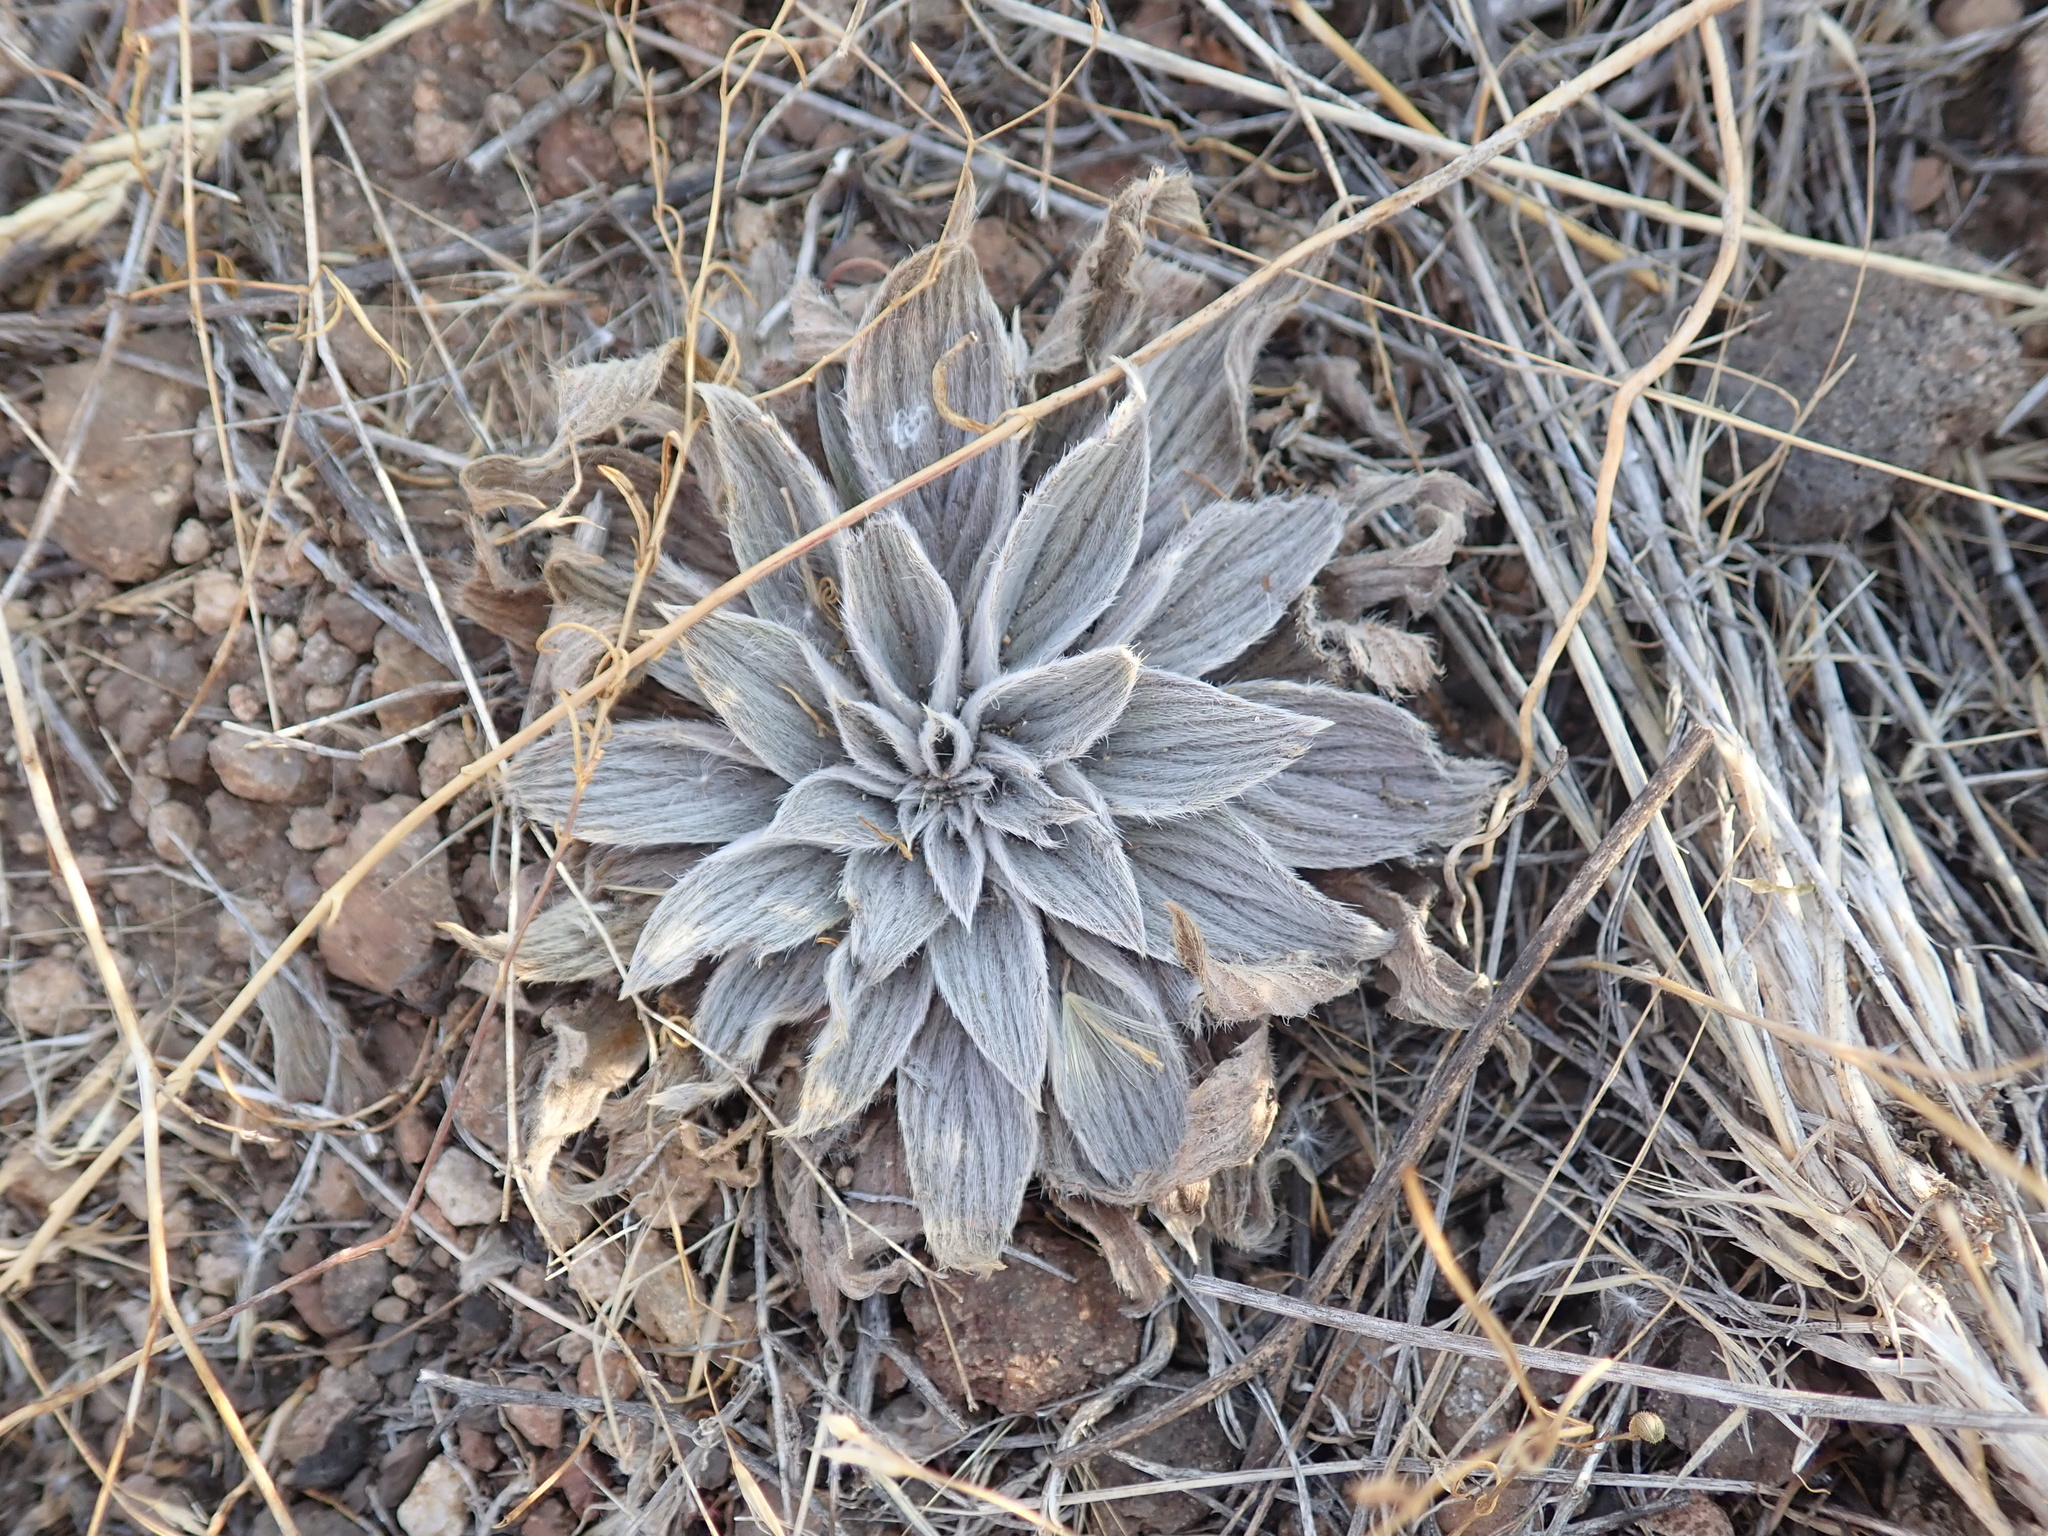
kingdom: Plantae
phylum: Tracheophyta
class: Magnoliopsida
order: Boraginales
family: Hydrophyllaceae
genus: Phacelia
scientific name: Phacelia hastata
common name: Silver-leaved phacelia
